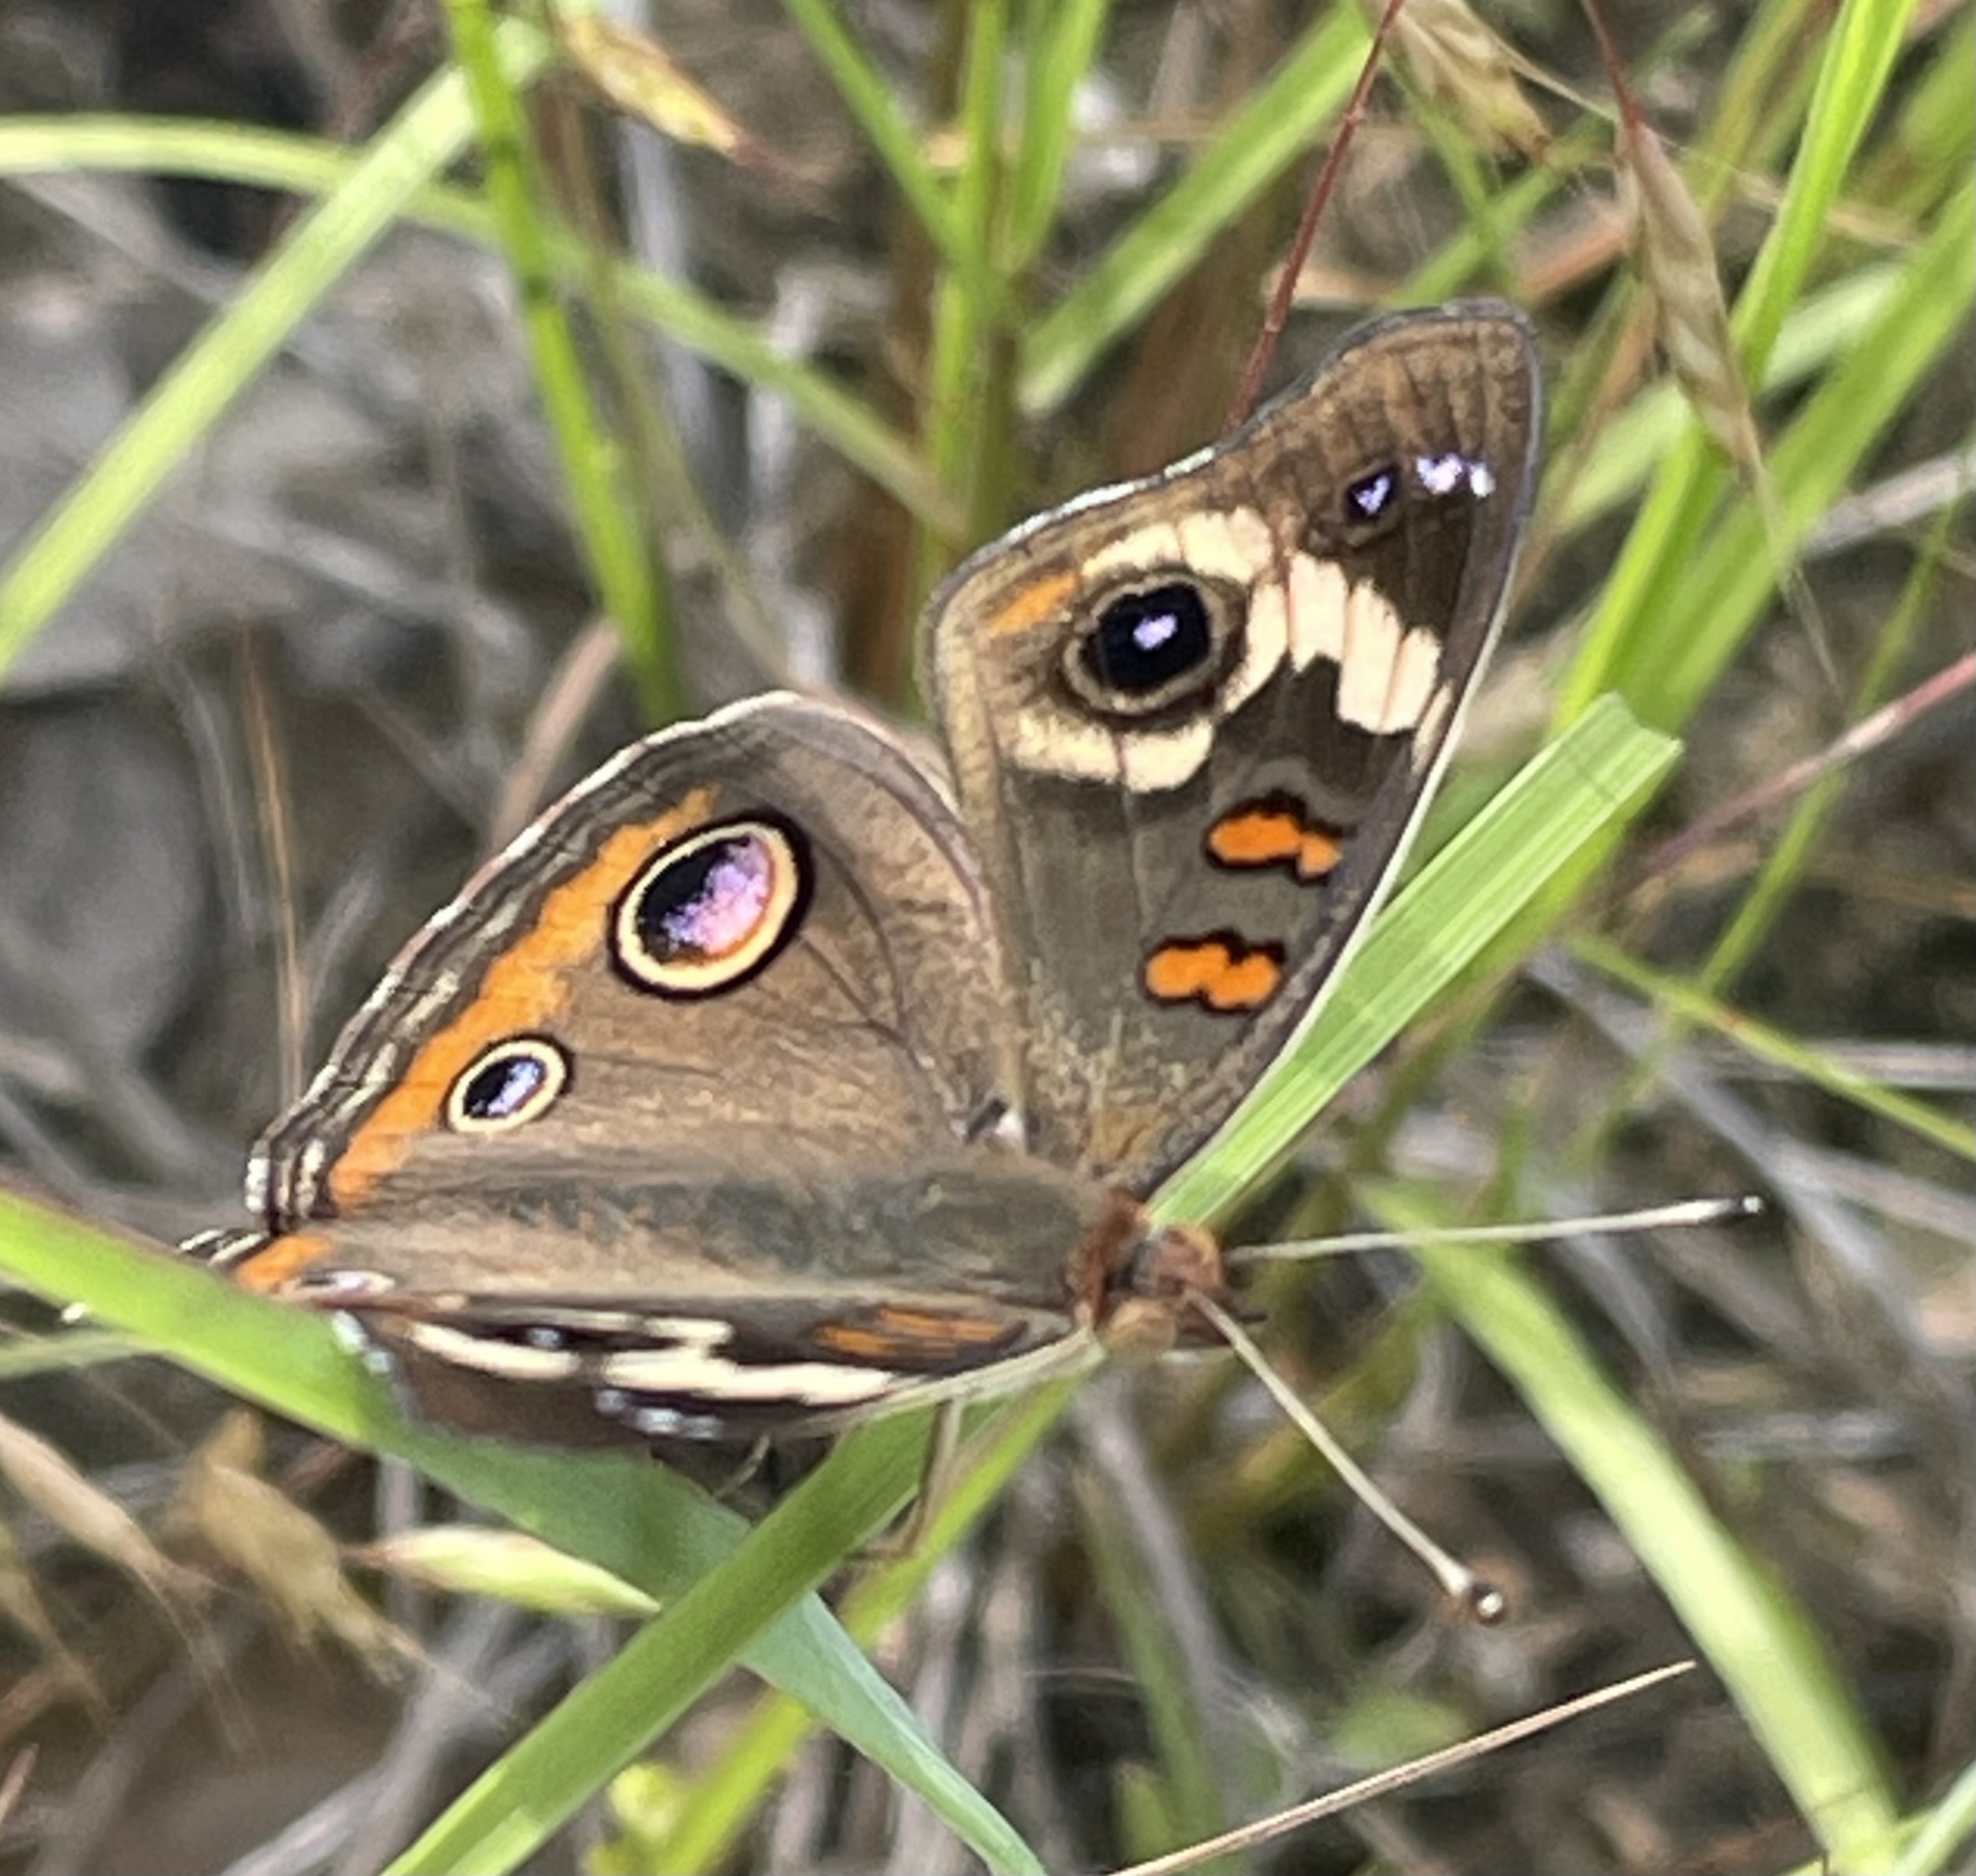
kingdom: Animalia
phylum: Arthropoda
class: Insecta
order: Lepidoptera
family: Nymphalidae
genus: Junonia
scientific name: Junonia coenia
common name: Common buckeye
